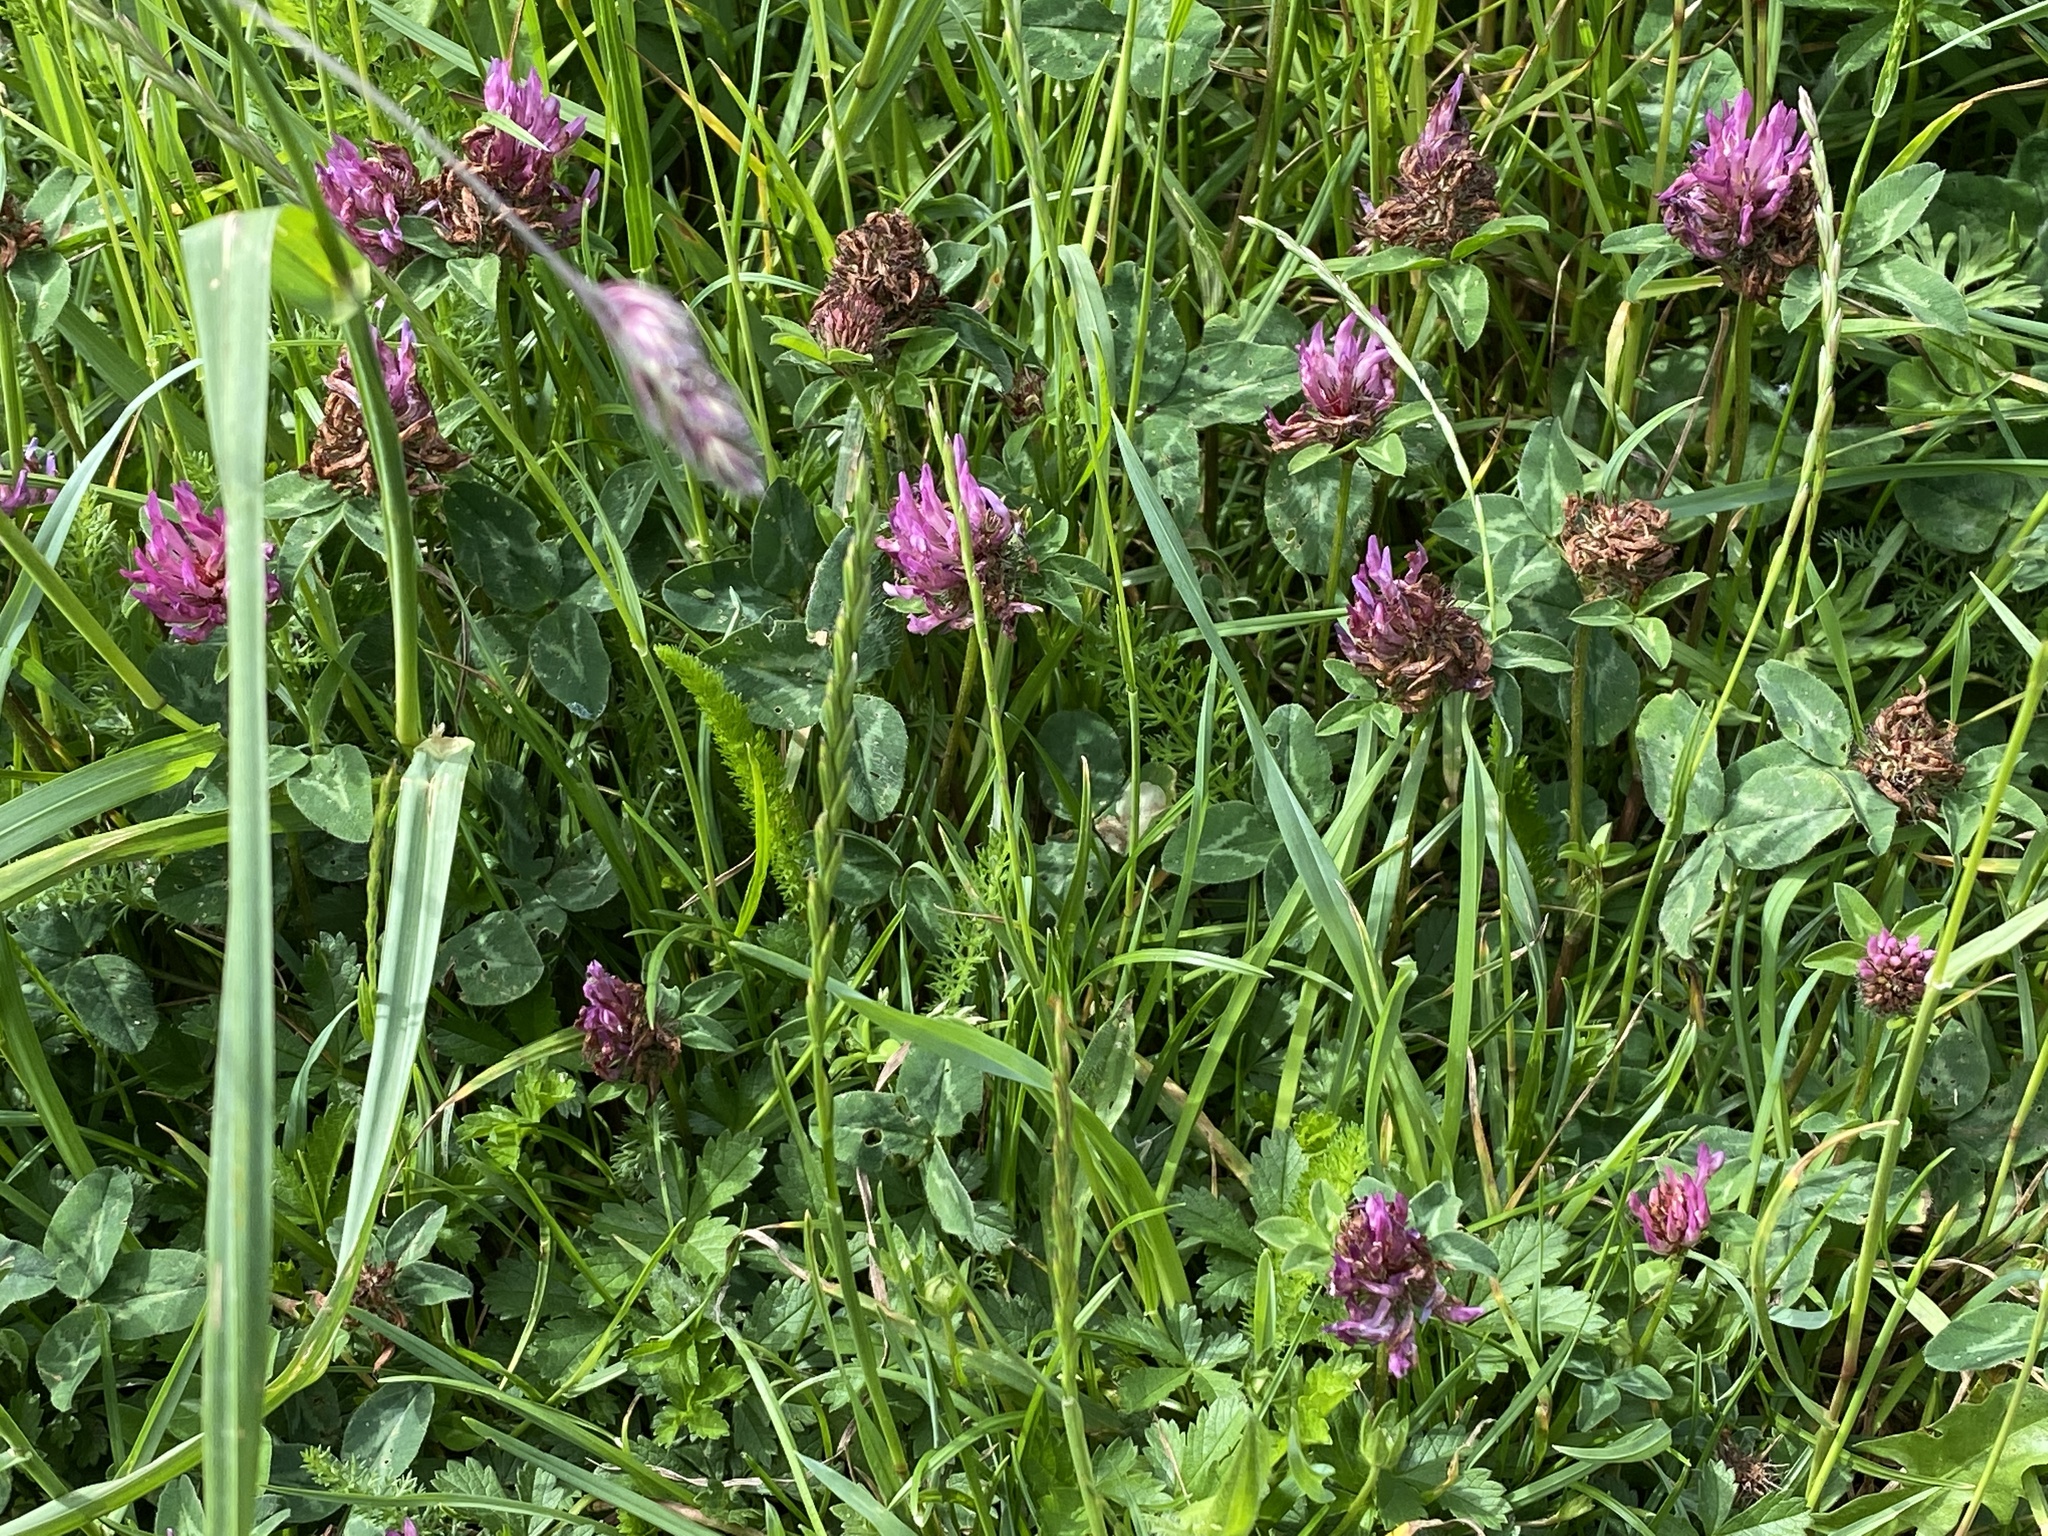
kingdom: Plantae
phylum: Tracheophyta
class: Magnoliopsida
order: Fabales
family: Fabaceae
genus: Trifolium
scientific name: Trifolium pratense
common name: Red clover
